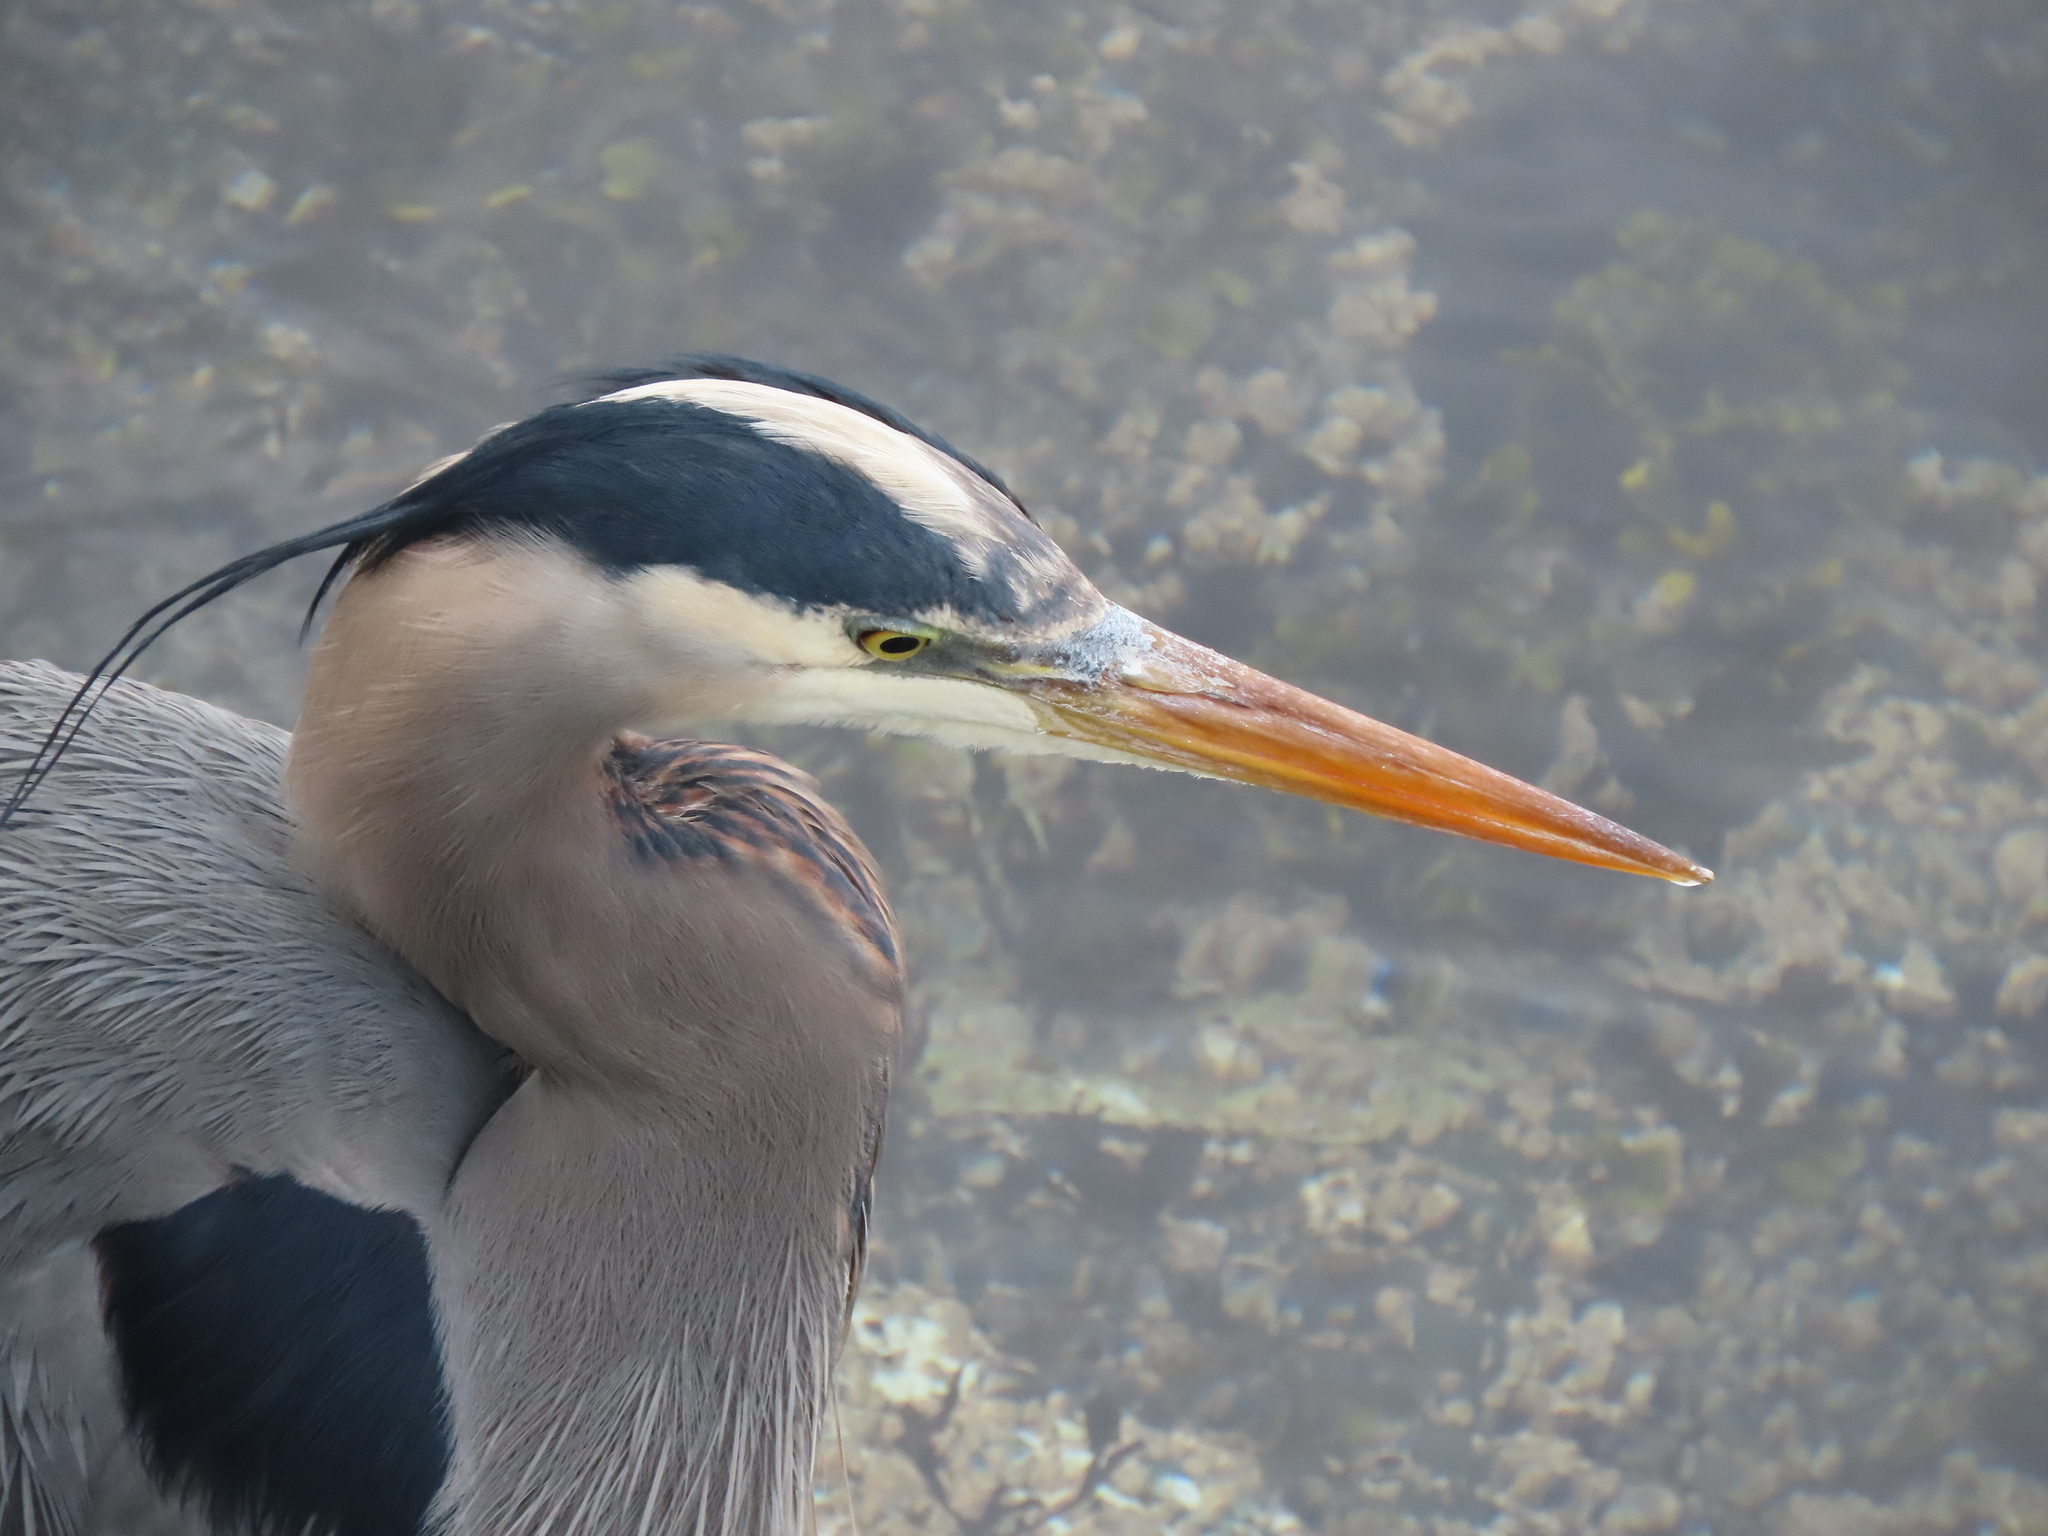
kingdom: Animalia
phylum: Chordata
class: Aves
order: Pelecaniformes
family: Ardeidae
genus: Ardea
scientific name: Ardea herodias
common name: Great blue heron
